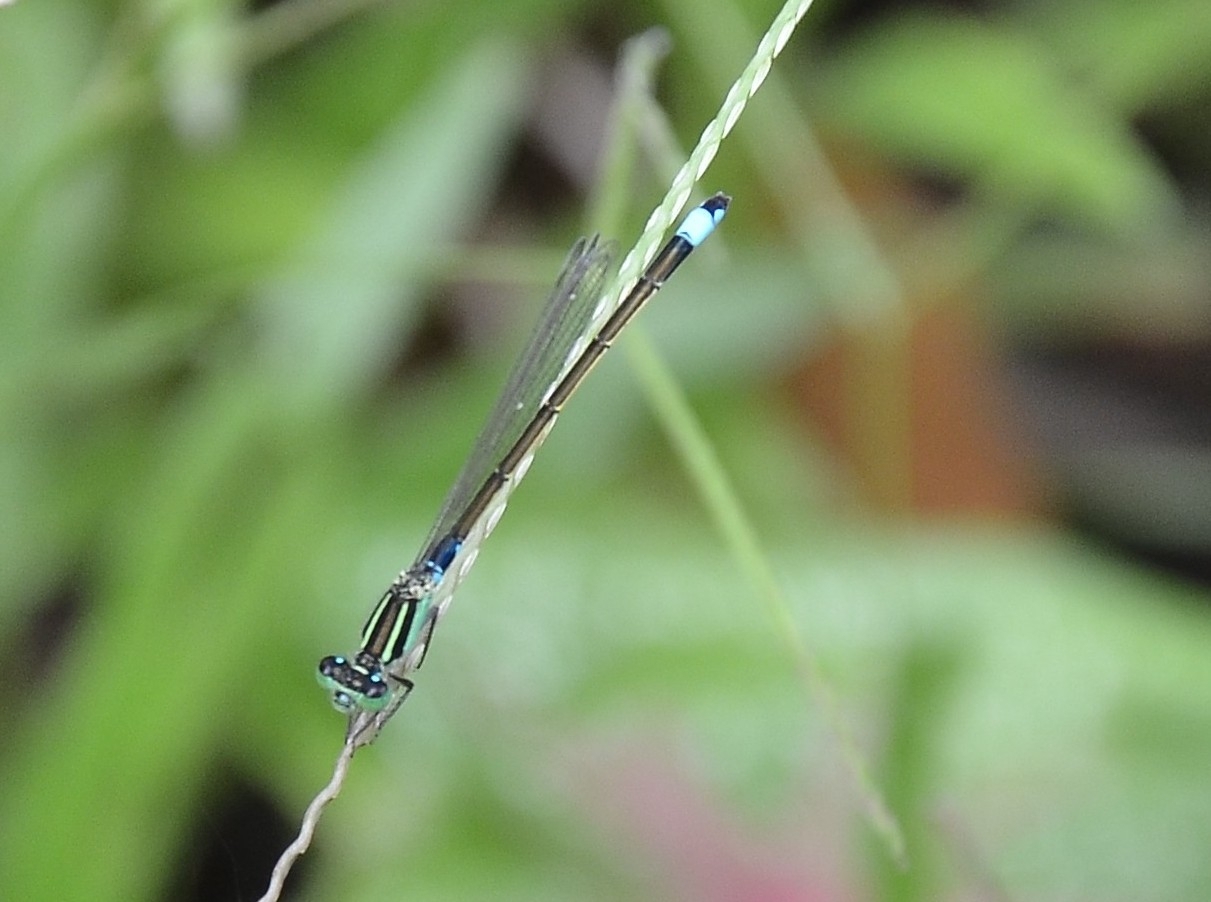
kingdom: Animalia
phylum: Arthropoda
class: Insecta
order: Odonata
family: Coenagrionidae
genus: Ischnura
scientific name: Ischnura senegalensis
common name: Tropical bluetail
